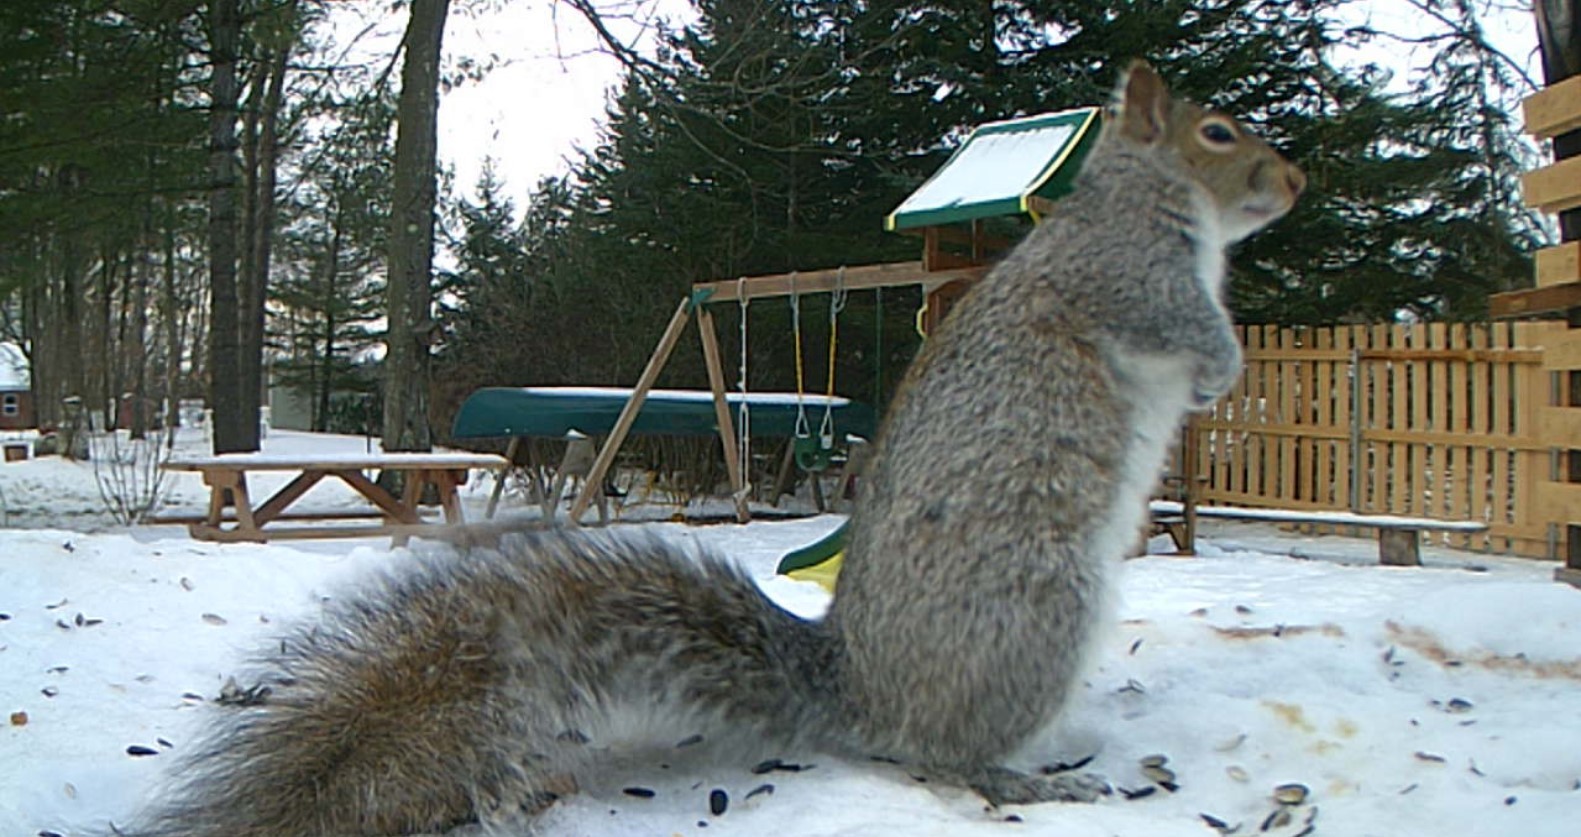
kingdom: Animalia
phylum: Chordata
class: Mammalia
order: Rodentia
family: Sciuridae
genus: Sciurus
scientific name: Sciurus carolinensis
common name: Eastern gray squirrel
